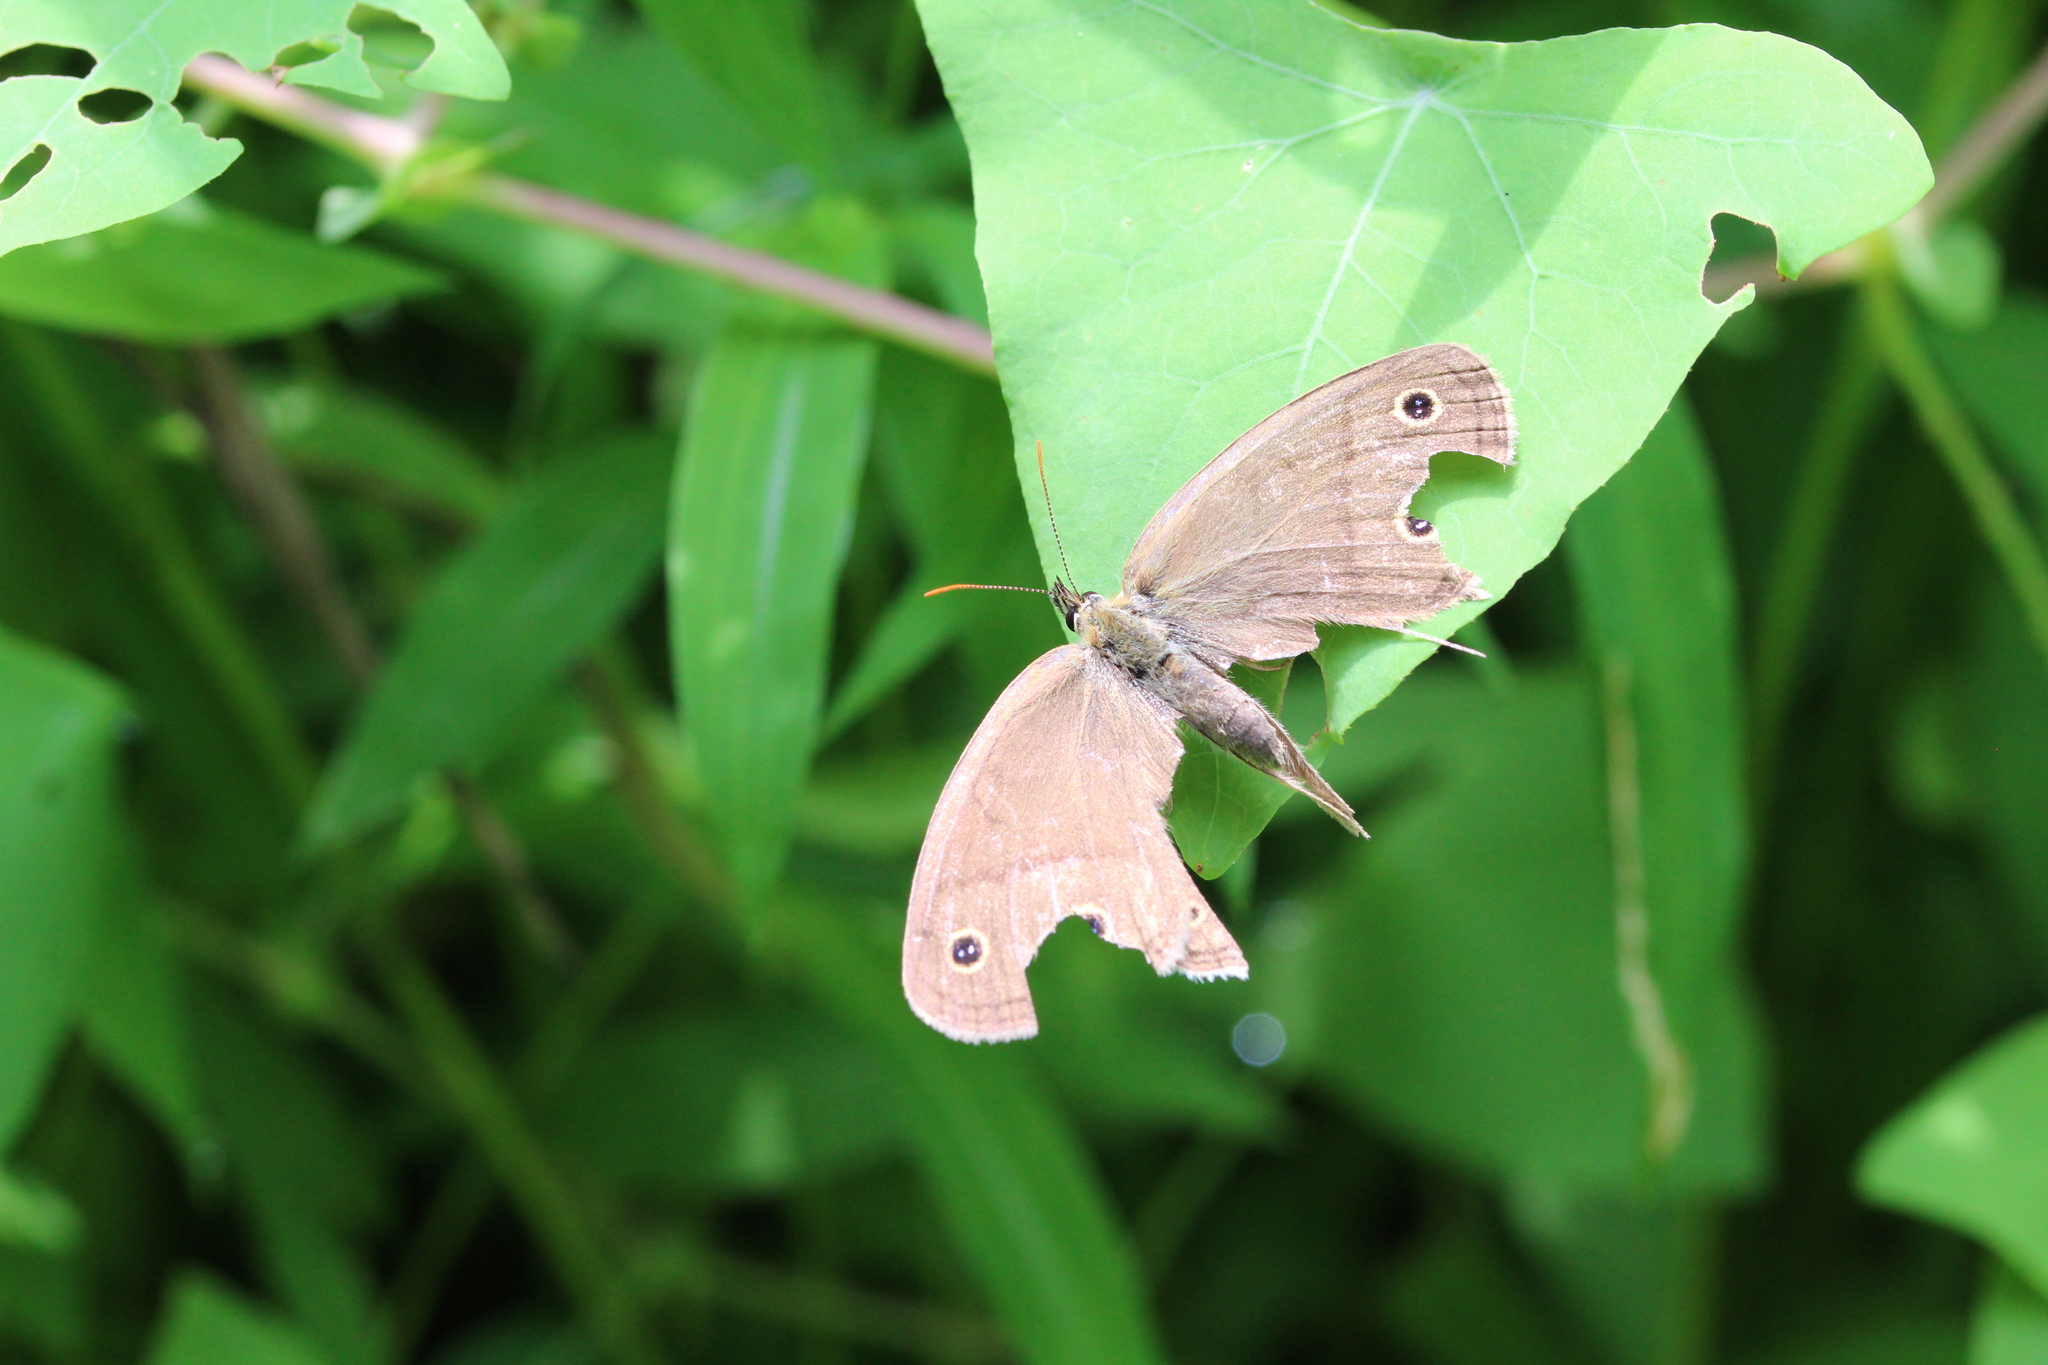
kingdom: Animalia
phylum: Arthropoda
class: Insecta
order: Lepidoptera
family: Nymphalidae
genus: Euptychia
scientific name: Euptychia cymela
